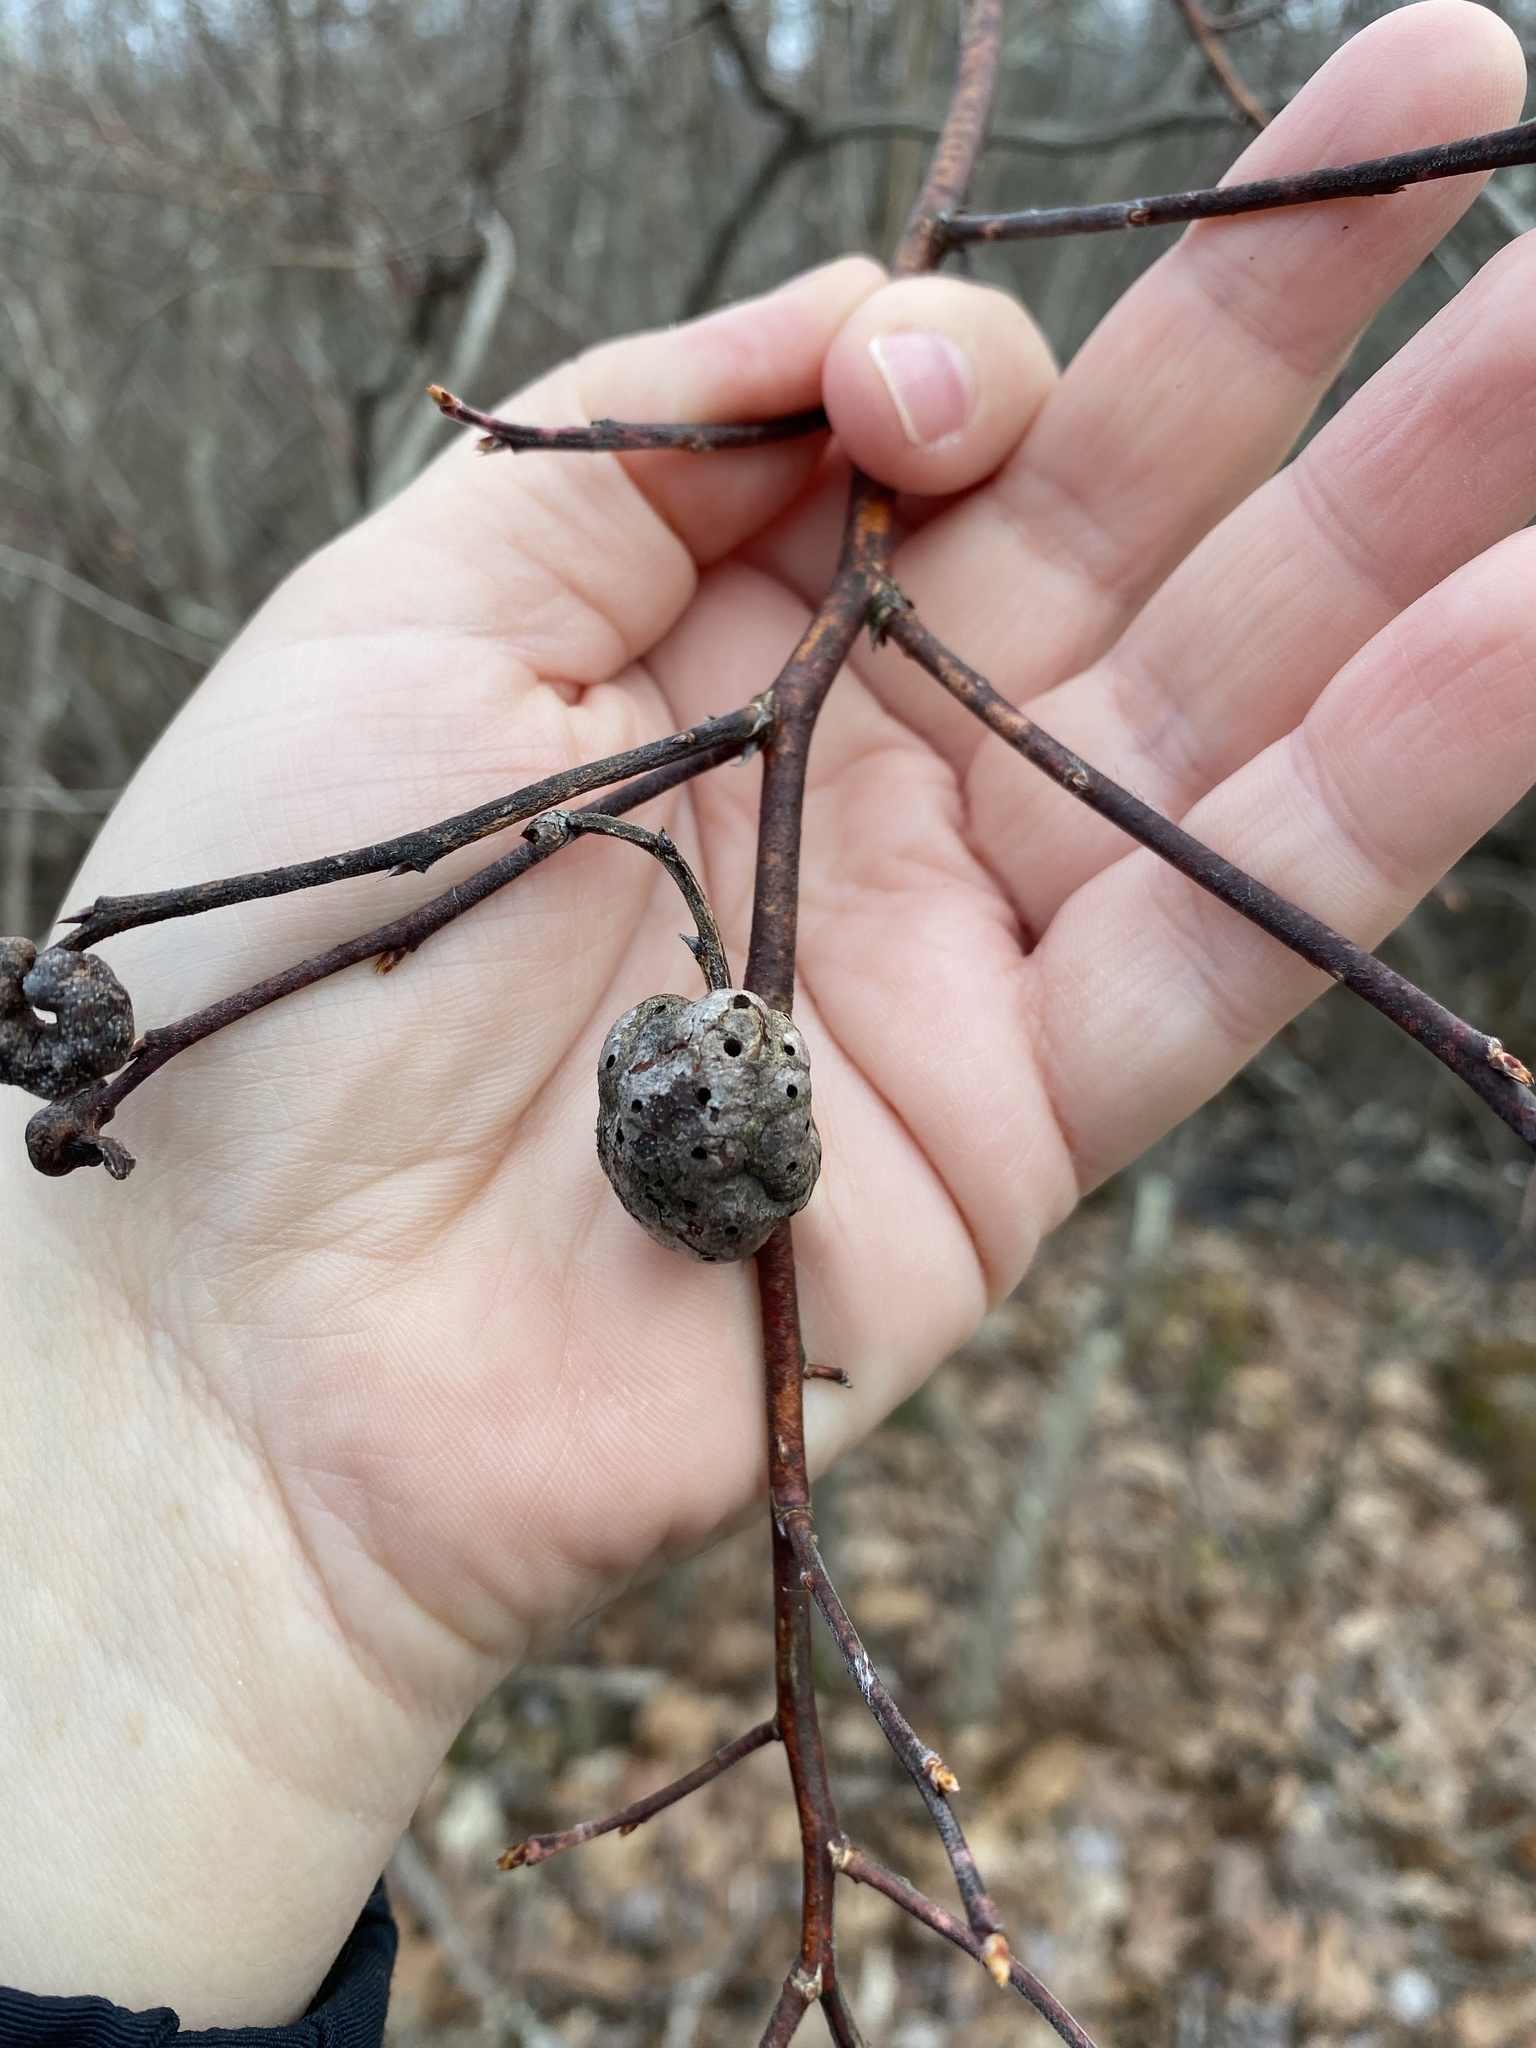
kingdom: Animalia
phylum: Arthropoda
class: Insecta
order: Hymenoptera
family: Pteromalidae
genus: Hemadas
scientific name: Hemadas nubilipennis
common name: Blueberry stem gall wasp
